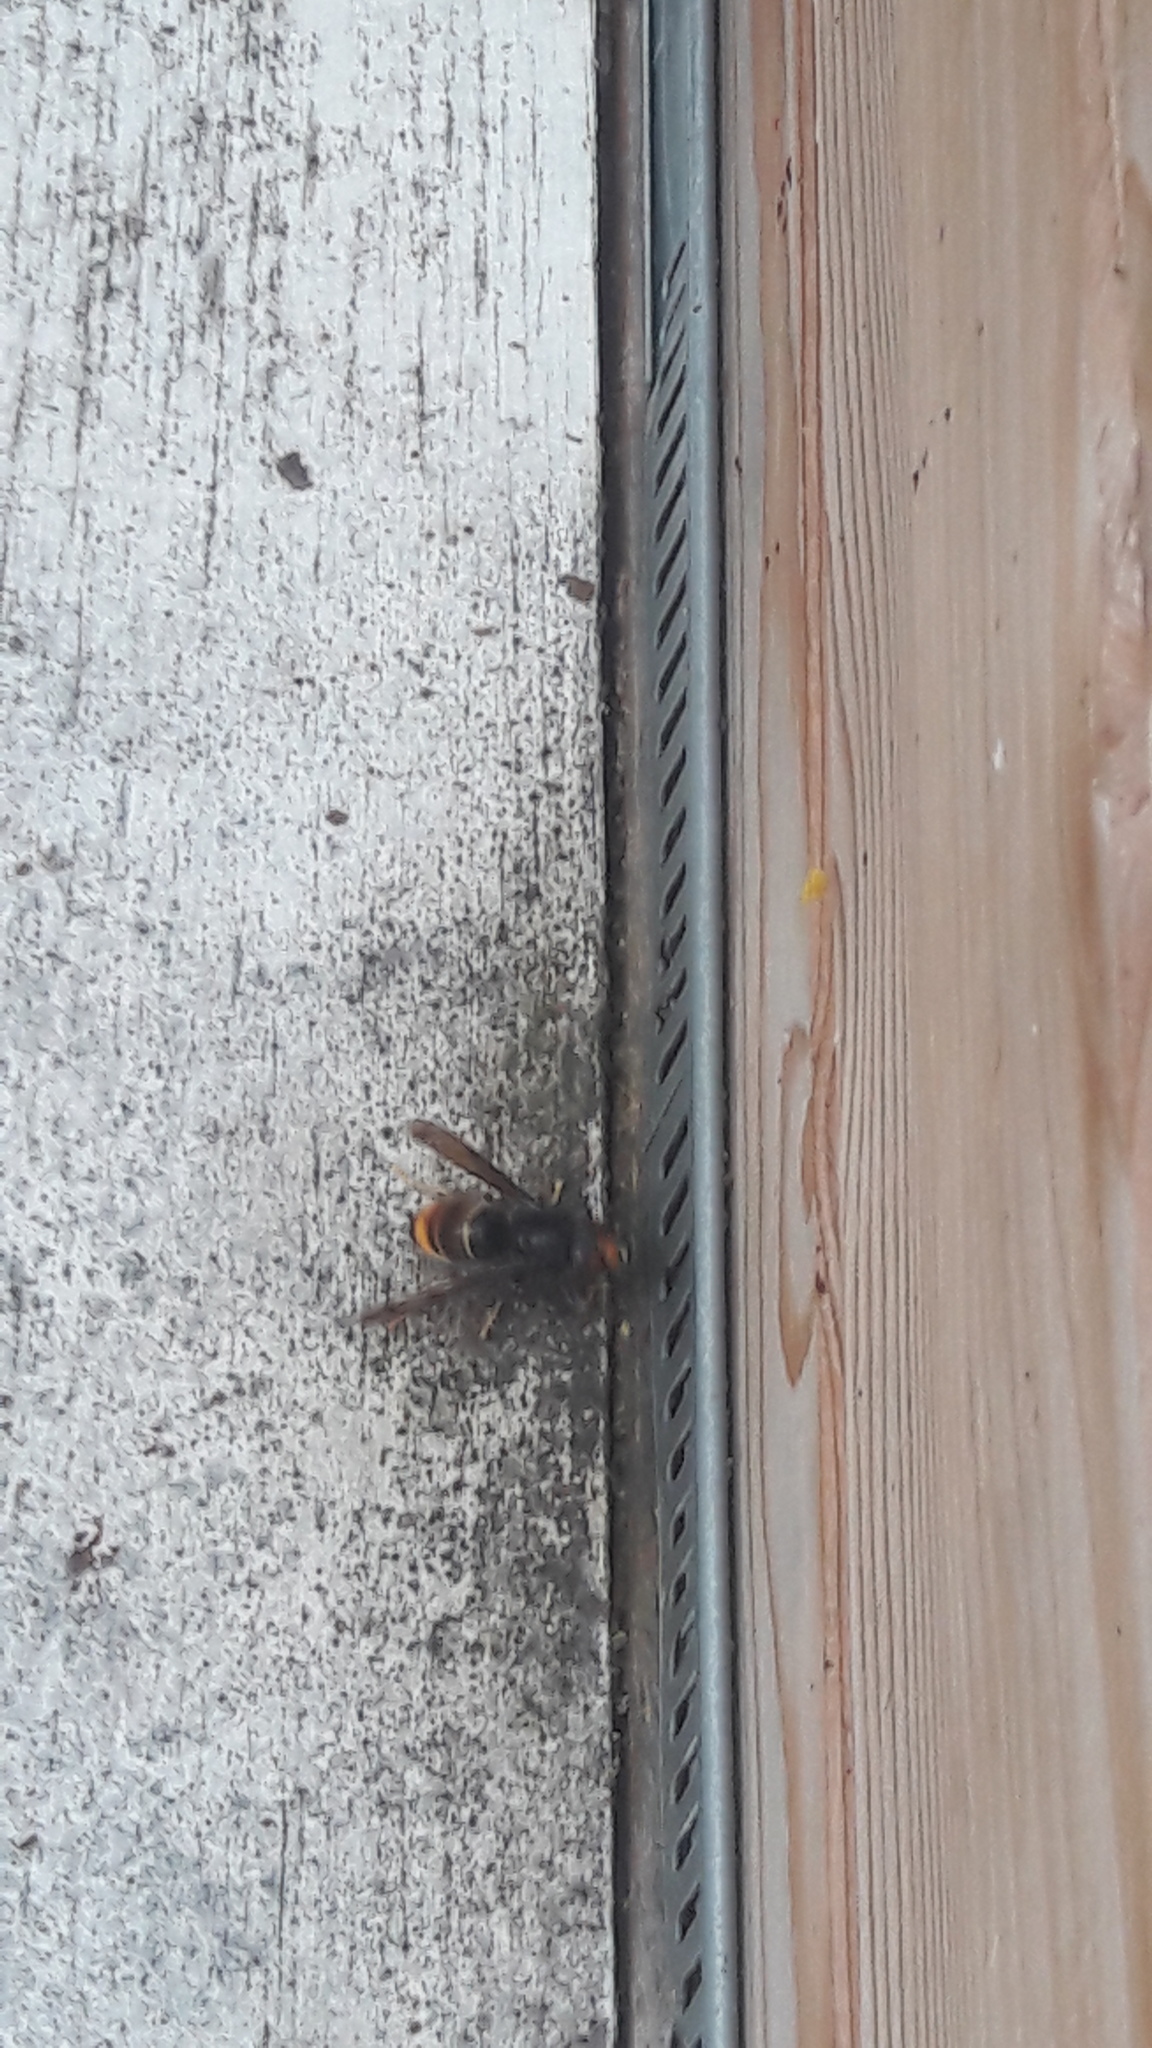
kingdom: Animalia
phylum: Arthropoda
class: Insecta
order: Hymenoptera
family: Vespidae
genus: Vespa
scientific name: Vespa velutina
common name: Asian hornet
